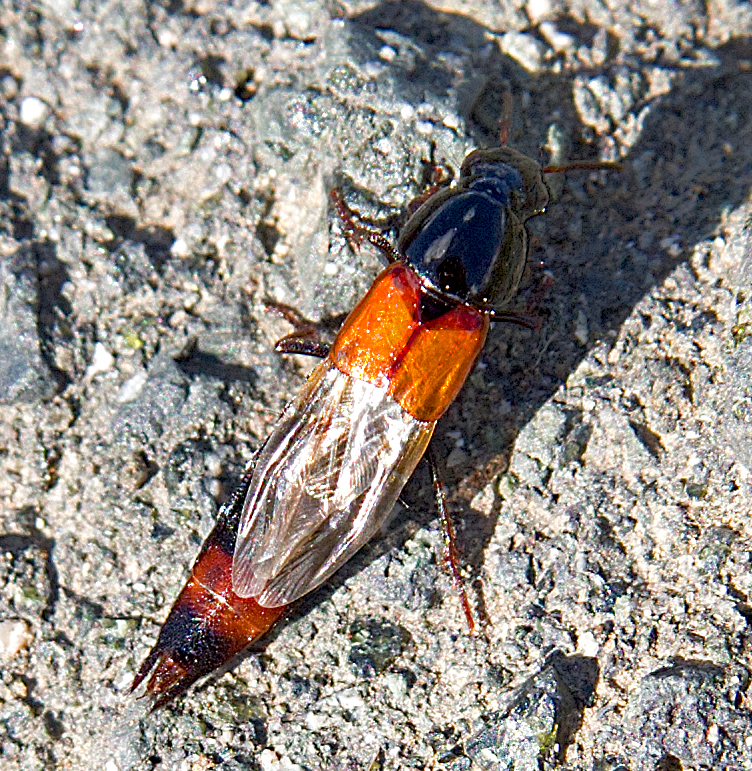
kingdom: Animalia
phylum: Arthropoda
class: Insecta
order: Coleoptera
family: Staphylinidae
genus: Astrapaeus
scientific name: Astrapaeus ulmi
